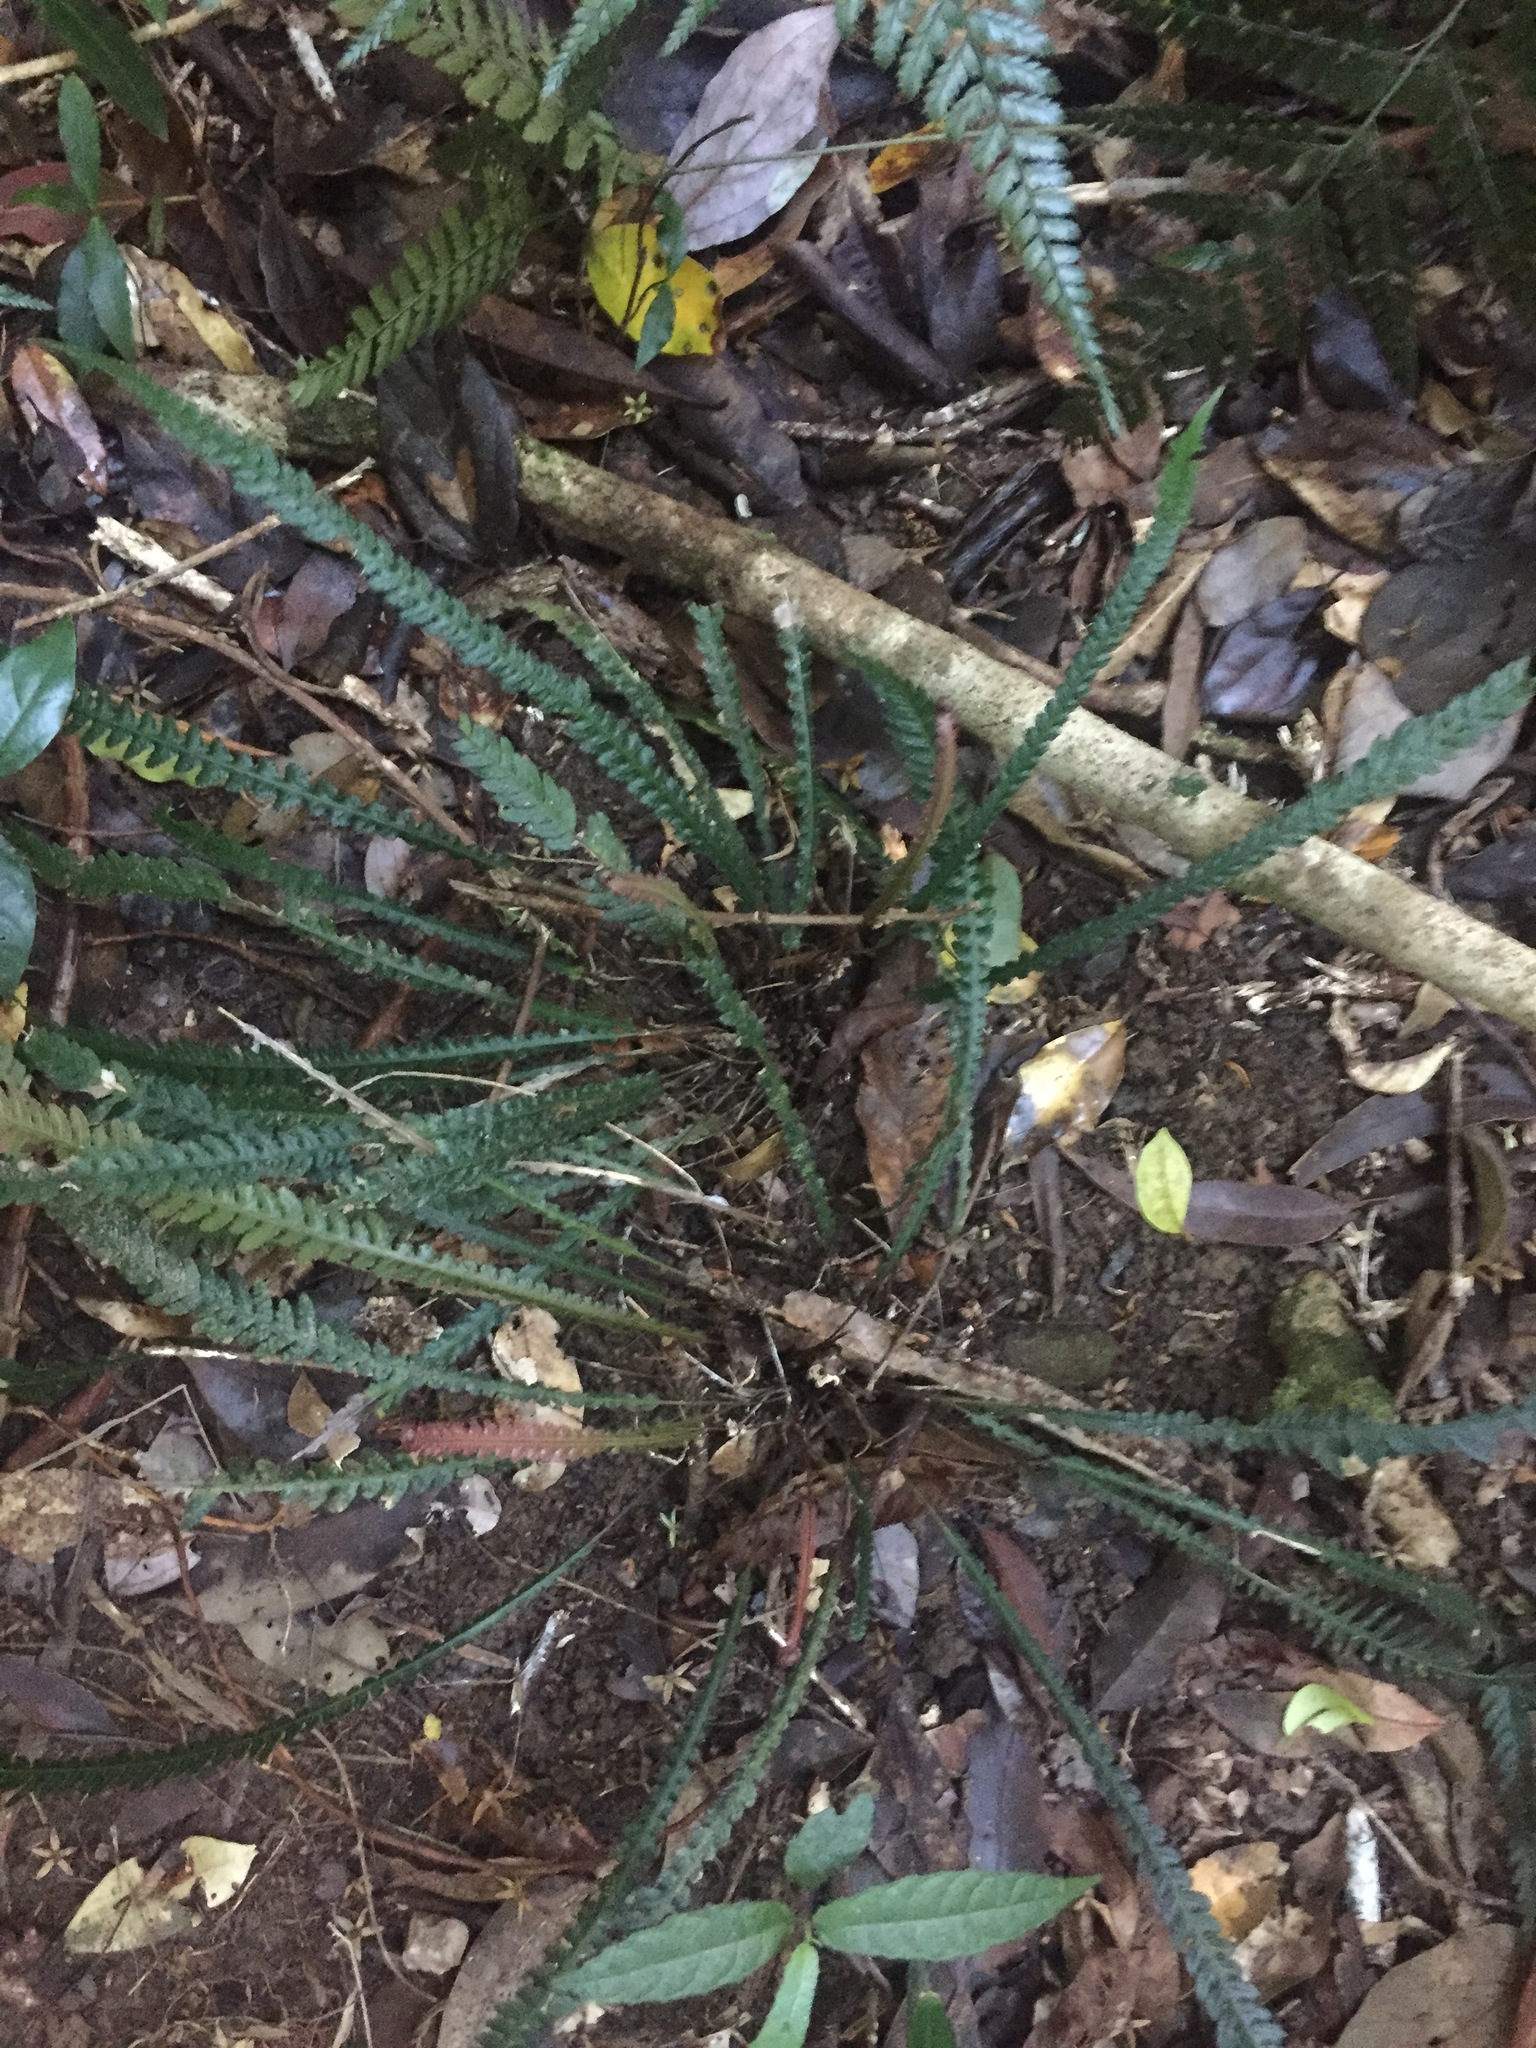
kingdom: Plantae
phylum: Tracheophyta
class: Polypodiopsida
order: Polypodiales
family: Blechnaceae
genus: Doodia
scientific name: Doodia heterophylla
